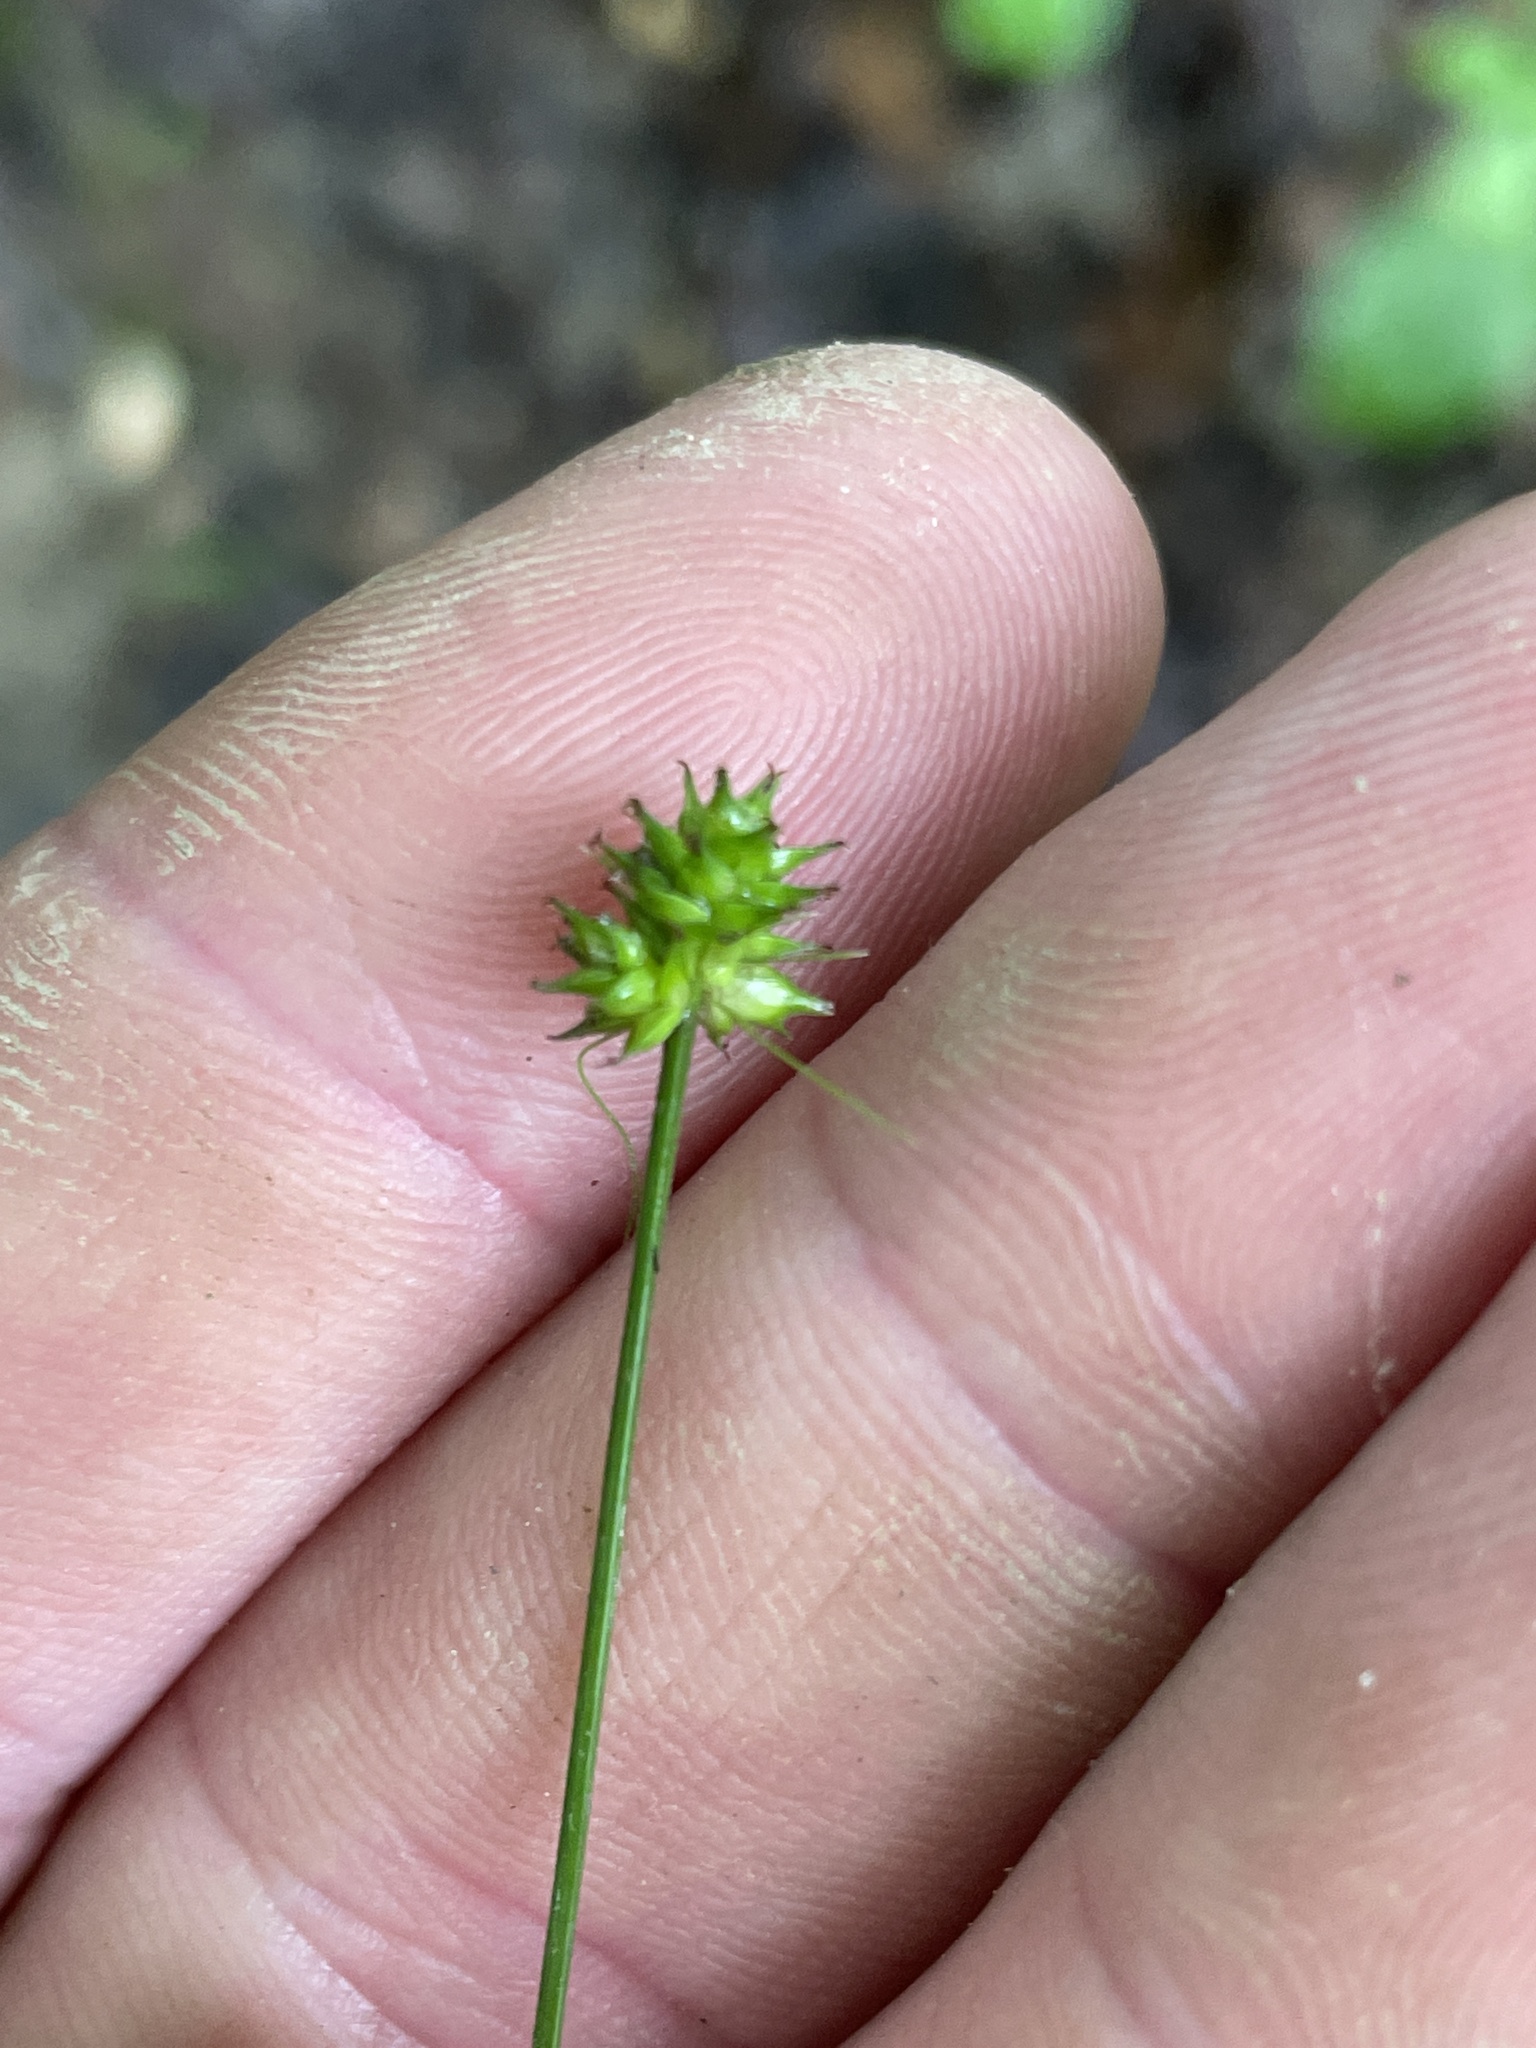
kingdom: Plantae
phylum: Tracheophyta
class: Liliopsida
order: Poales
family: Cyperaceae
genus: Carex
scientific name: Carex cephalophora
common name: Oval-headed sedge
